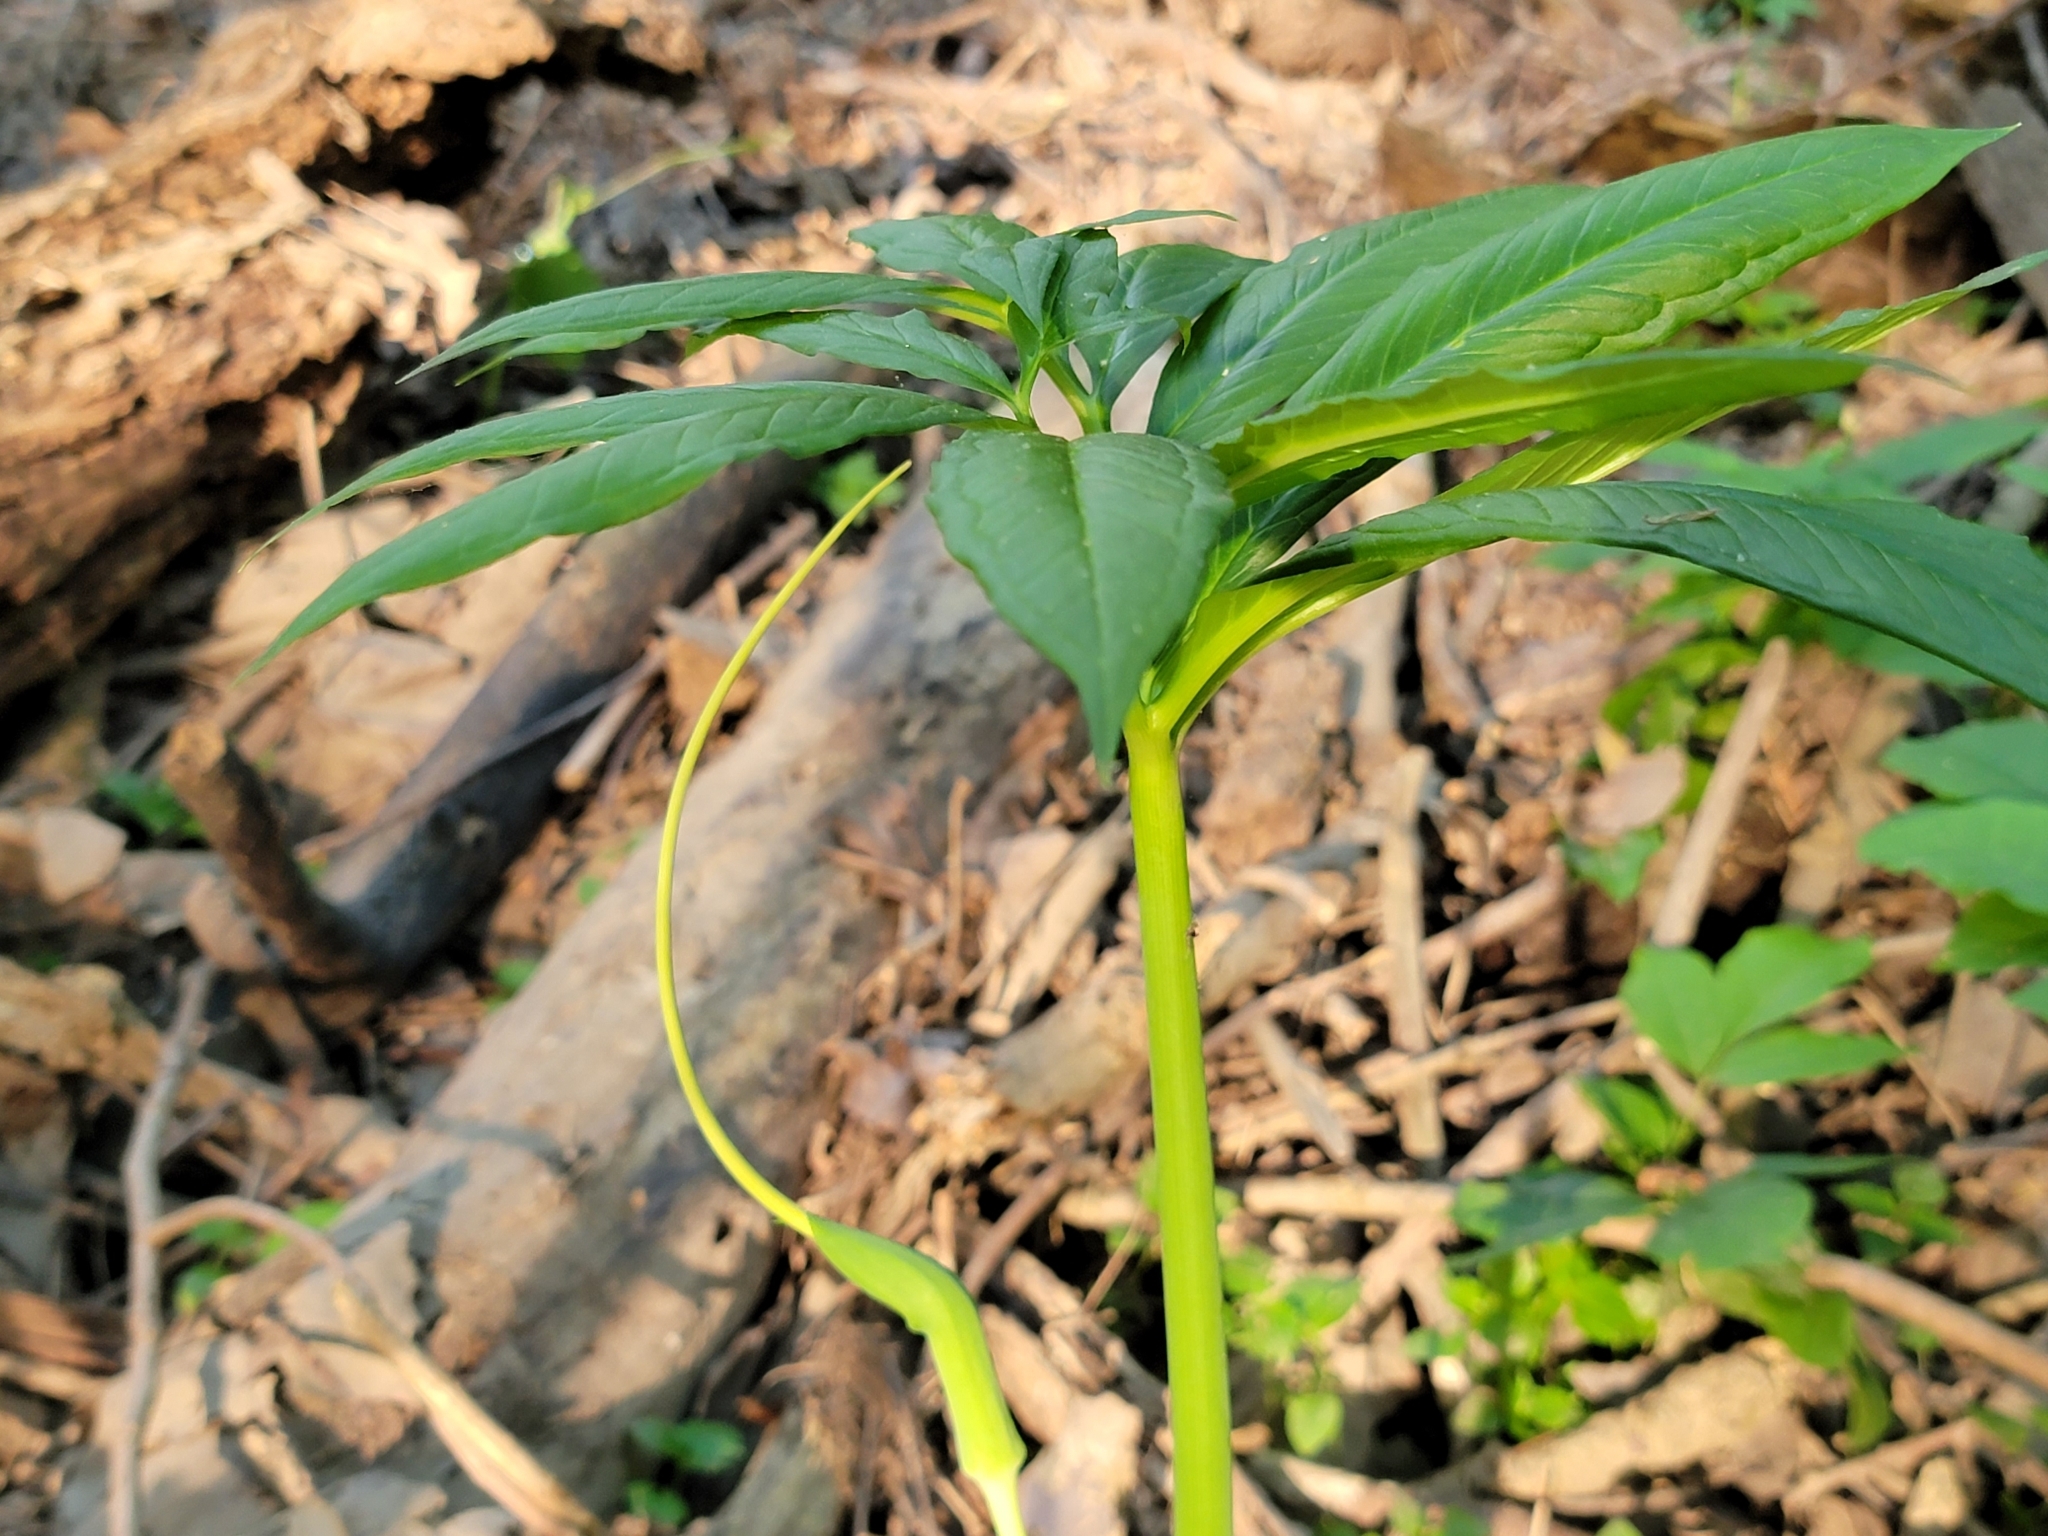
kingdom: Plantae
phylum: Tracheophyta
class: Liliopsida
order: Alismatales
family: Araceae
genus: Arisaema
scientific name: Arisaema dracontium
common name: Dragon-arum
